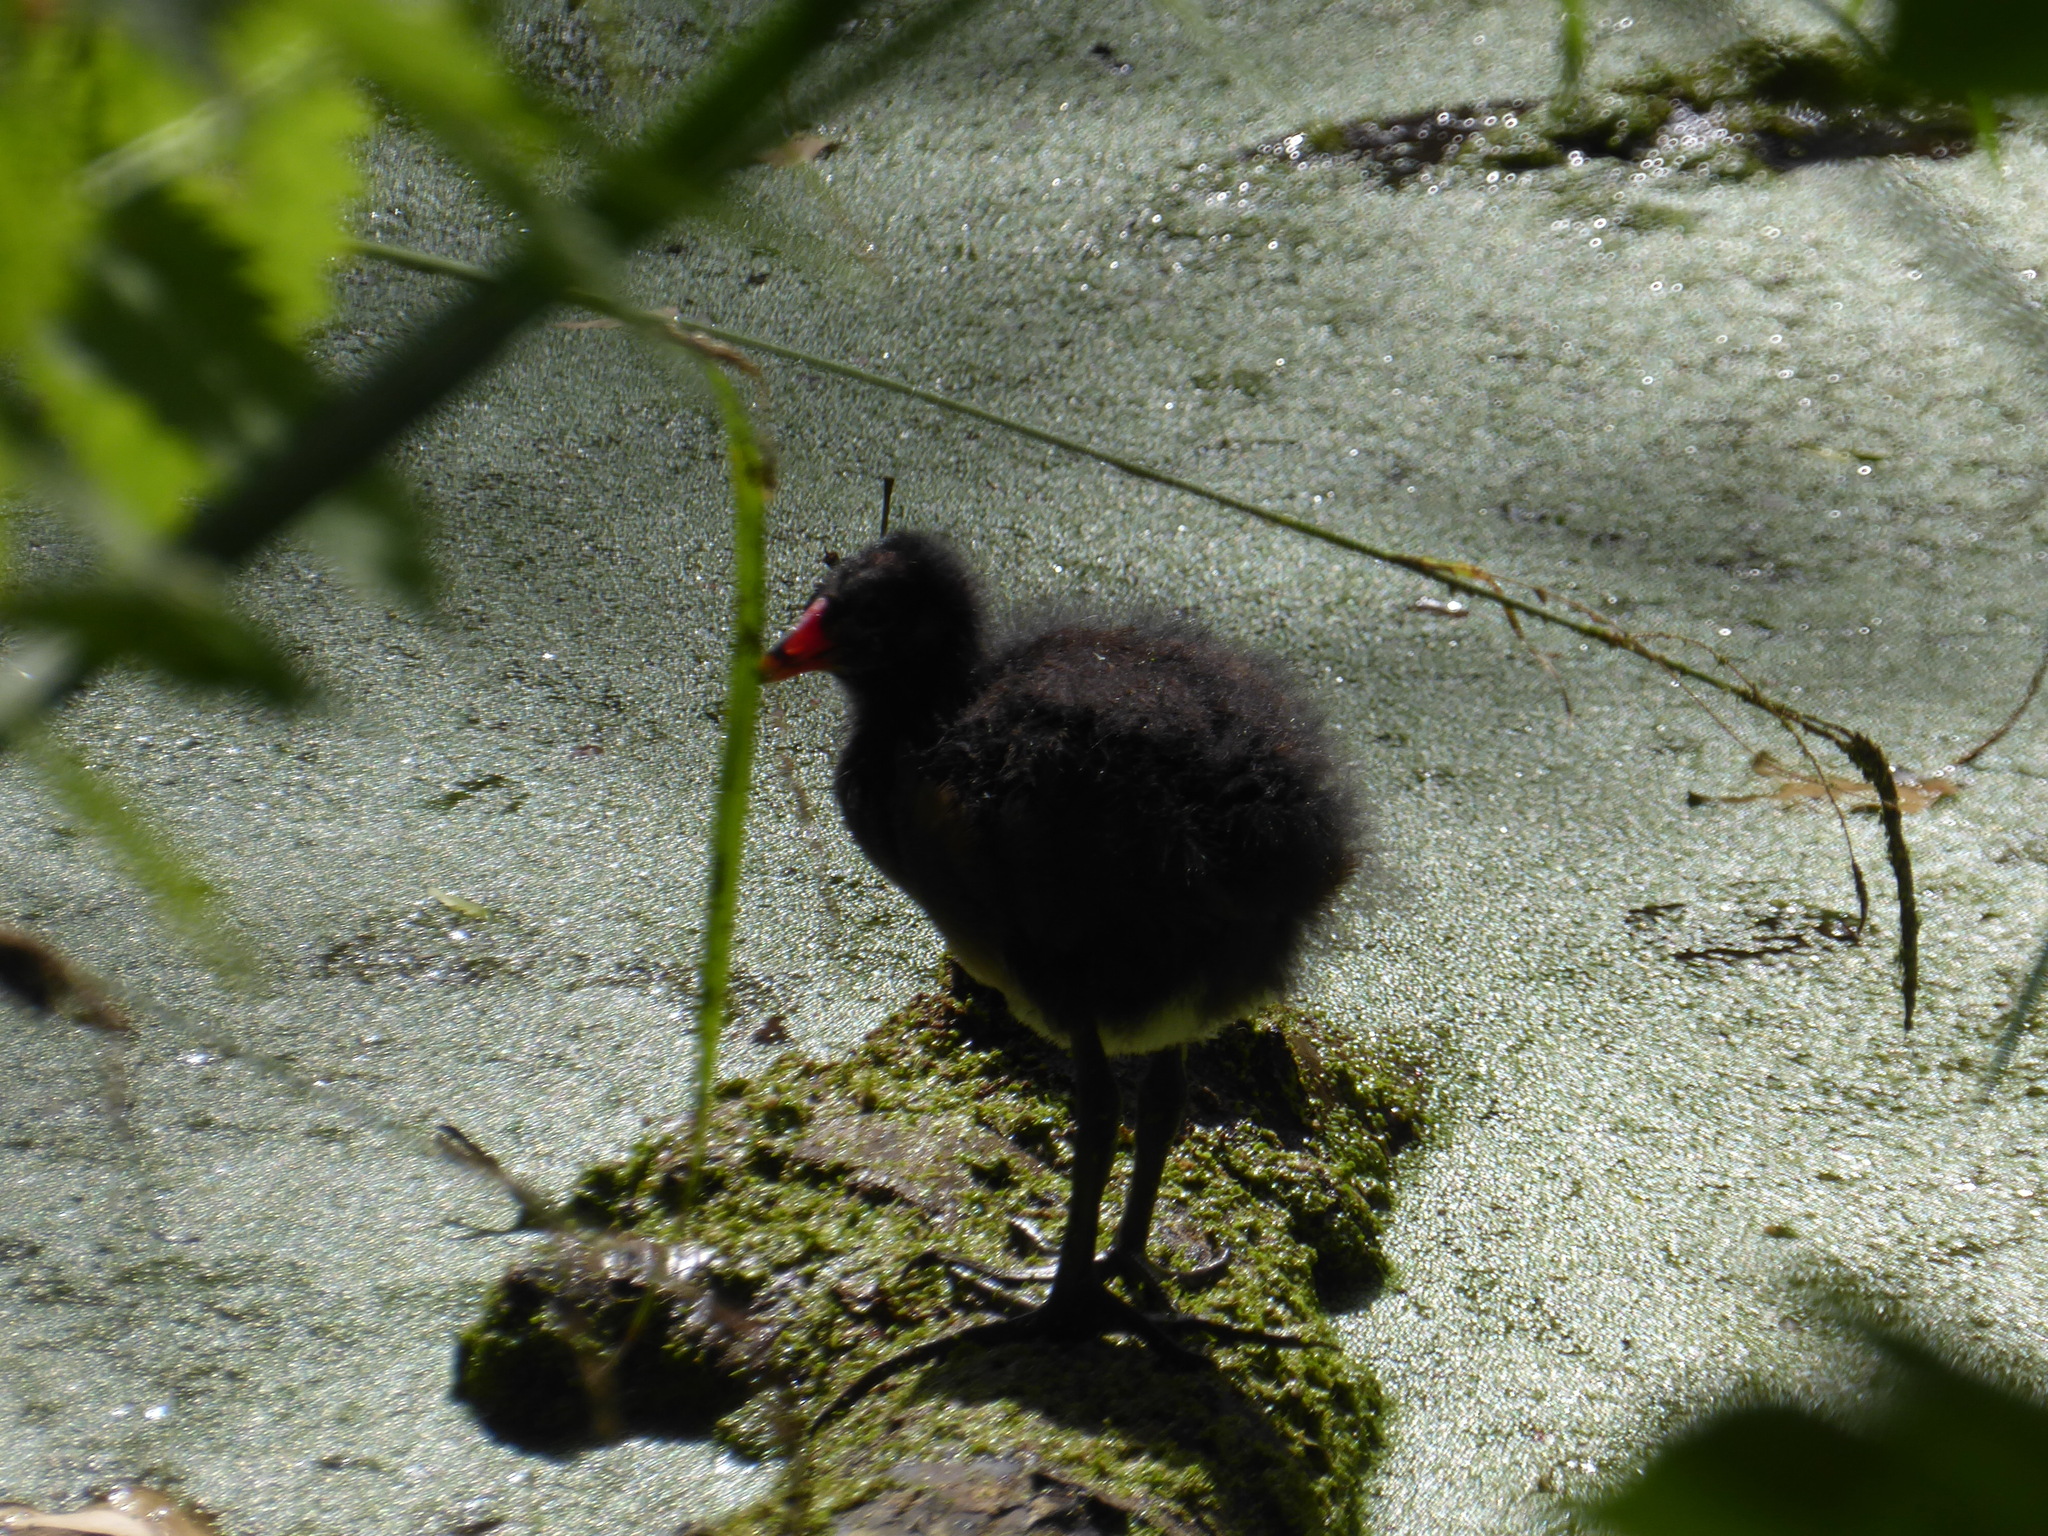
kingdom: Animalia
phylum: Chordata
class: Aves
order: Gruiformes
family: Rallidae
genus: Gallinula
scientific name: Gallinula chloropus
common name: Common moorhen
